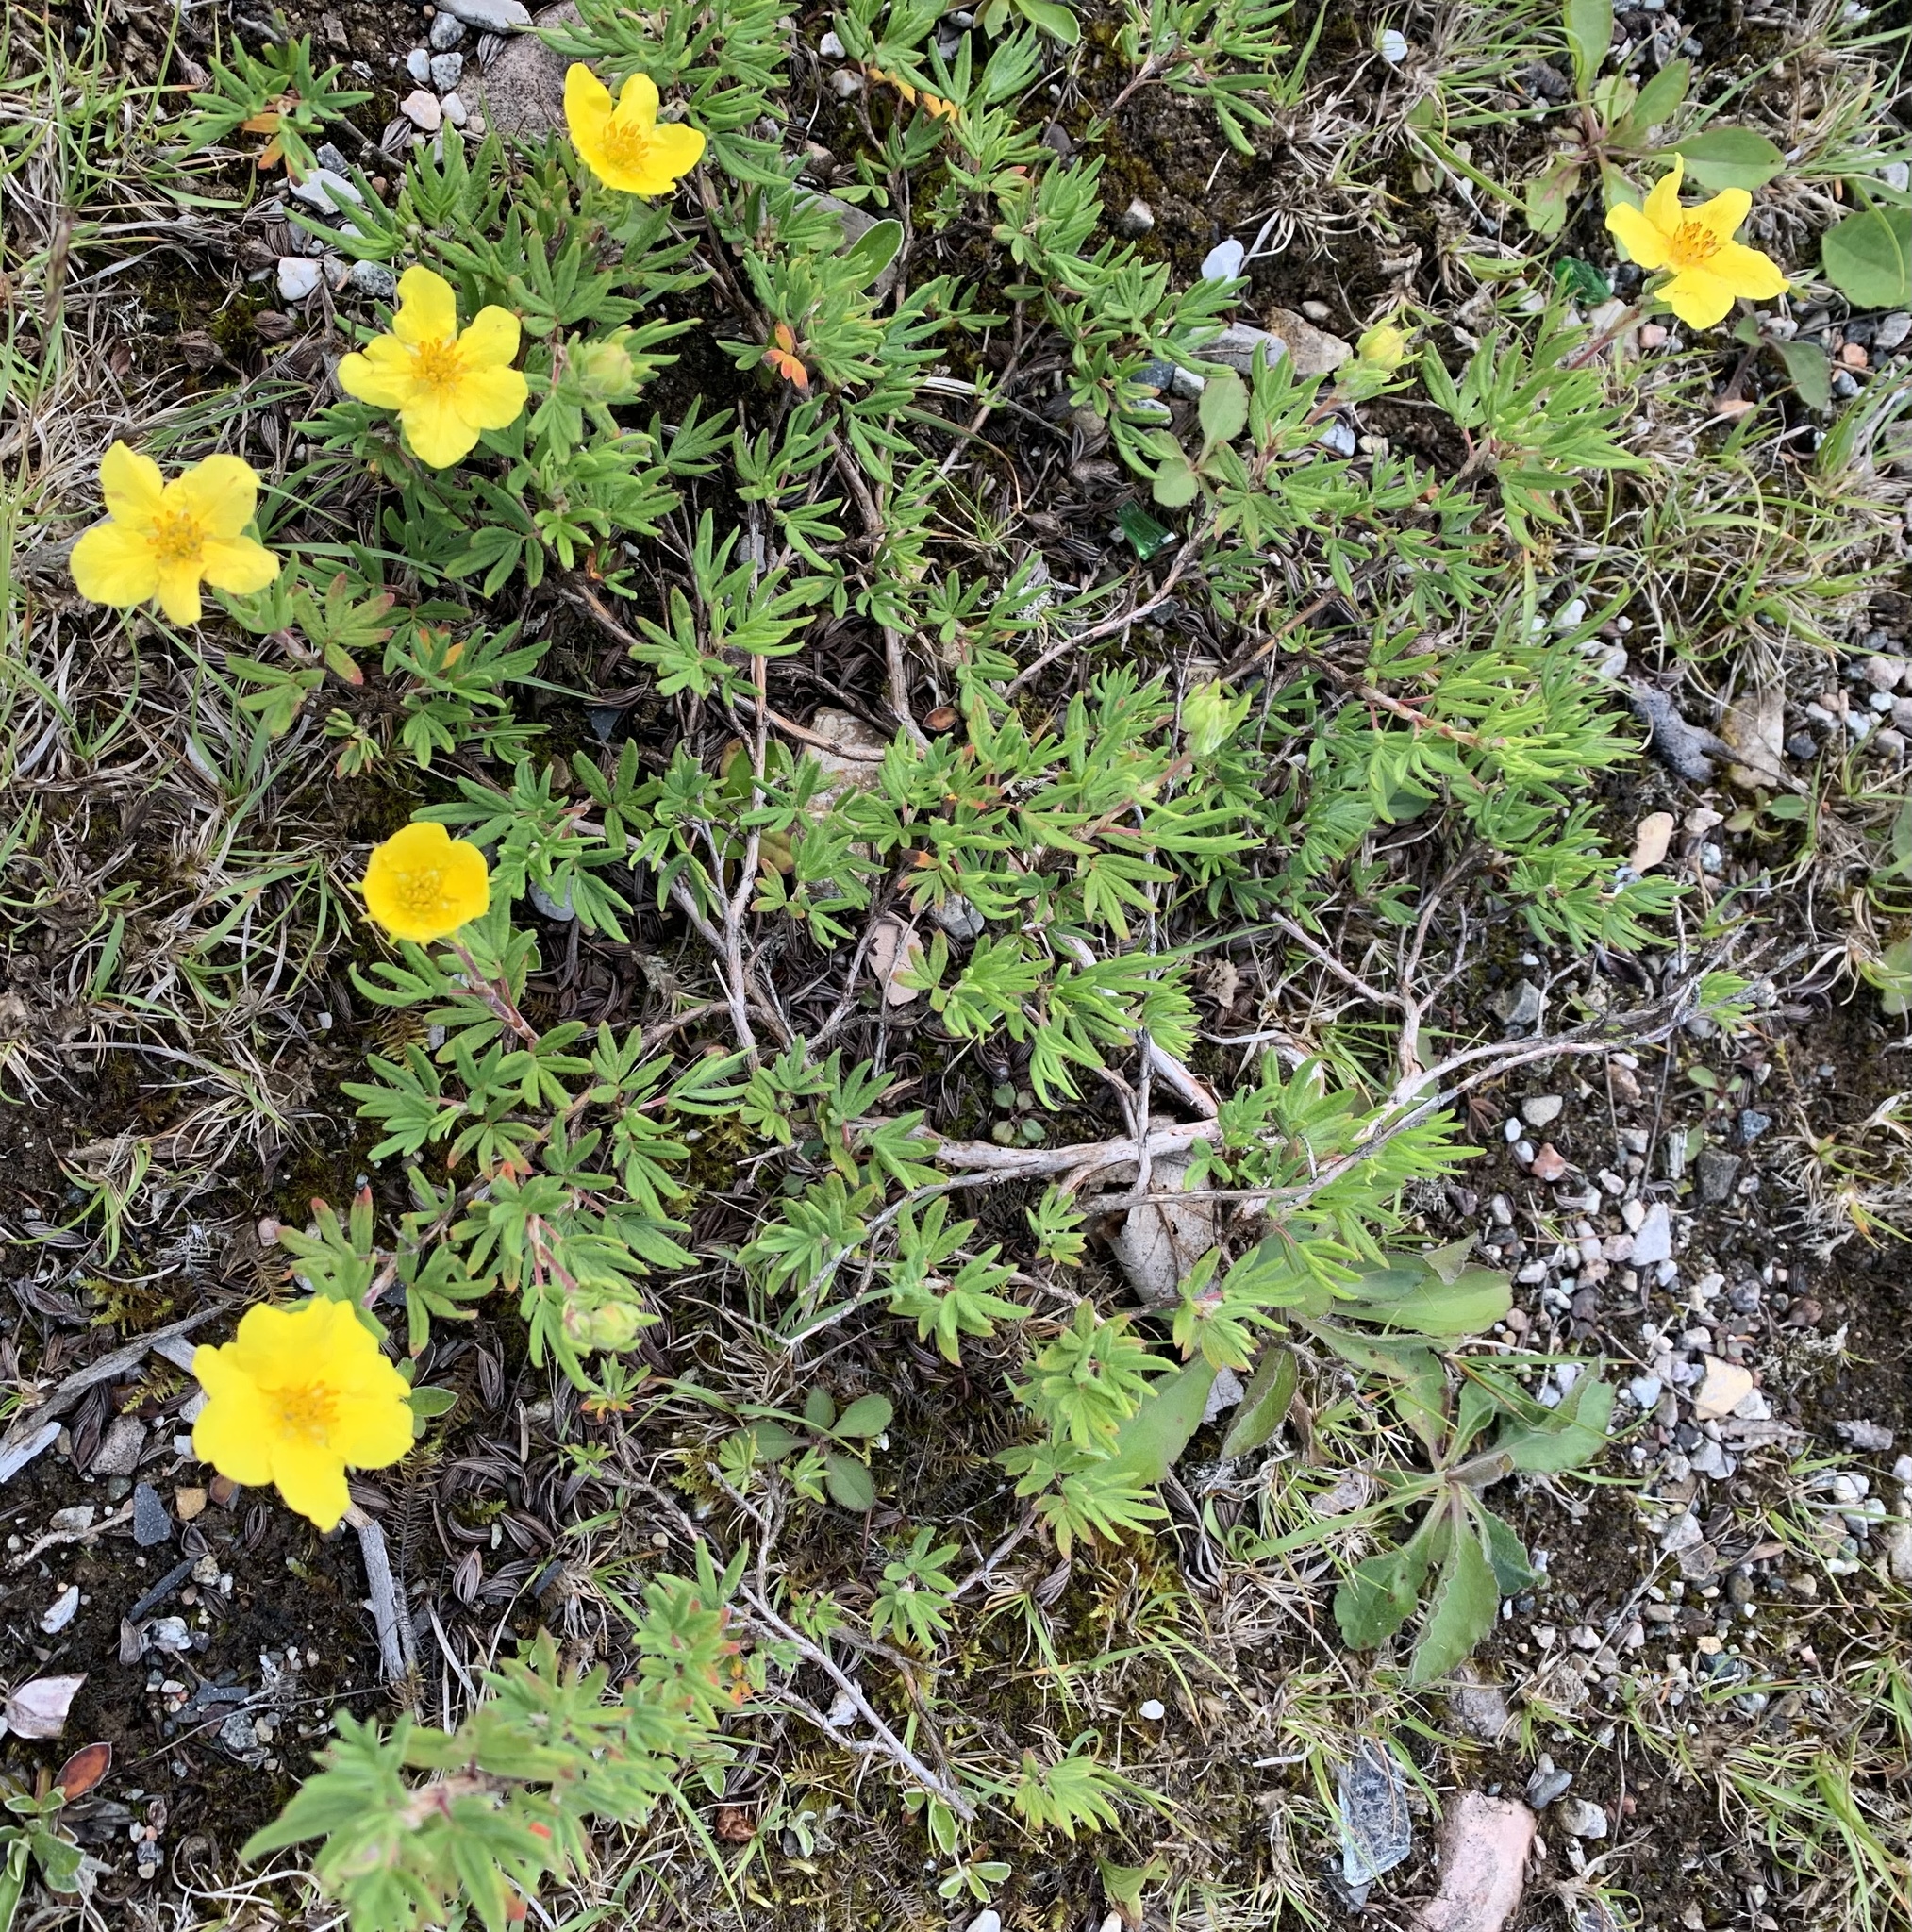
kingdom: Plantae
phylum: Tracheophyta
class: Magnoliopsida
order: Rosales
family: Rosaceae
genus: Dasiphora
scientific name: Dasiphora fruticosa
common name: Shrubby cinquefoil
